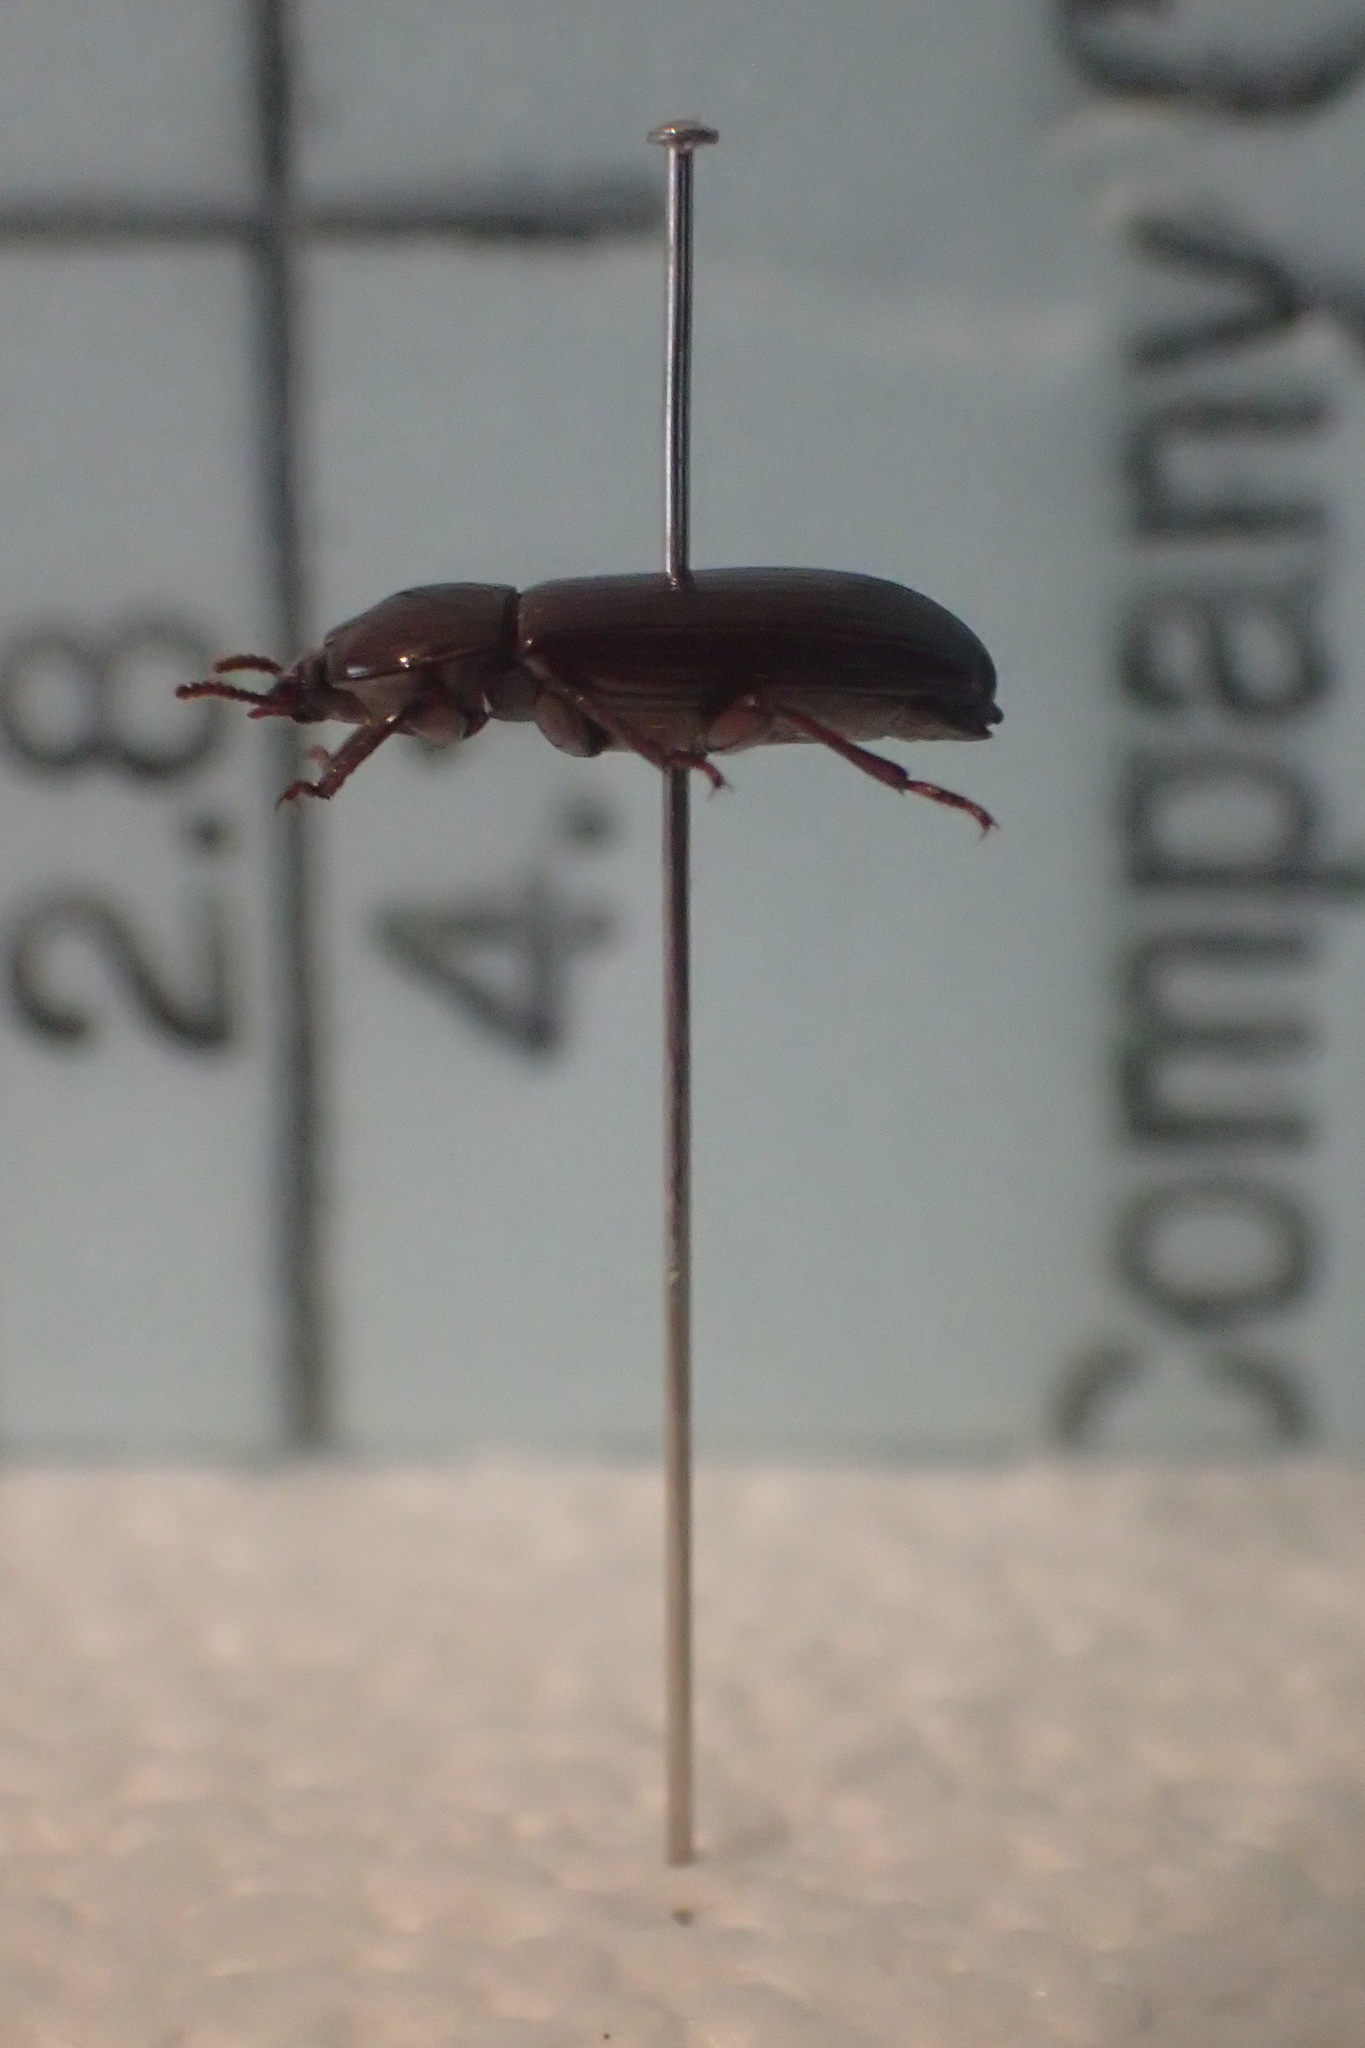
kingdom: Animalia
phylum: Arthropoda
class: Insecta
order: Coleoptera
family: Tenebrionidae
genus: Uloma
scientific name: Uloma tenebrionoides
